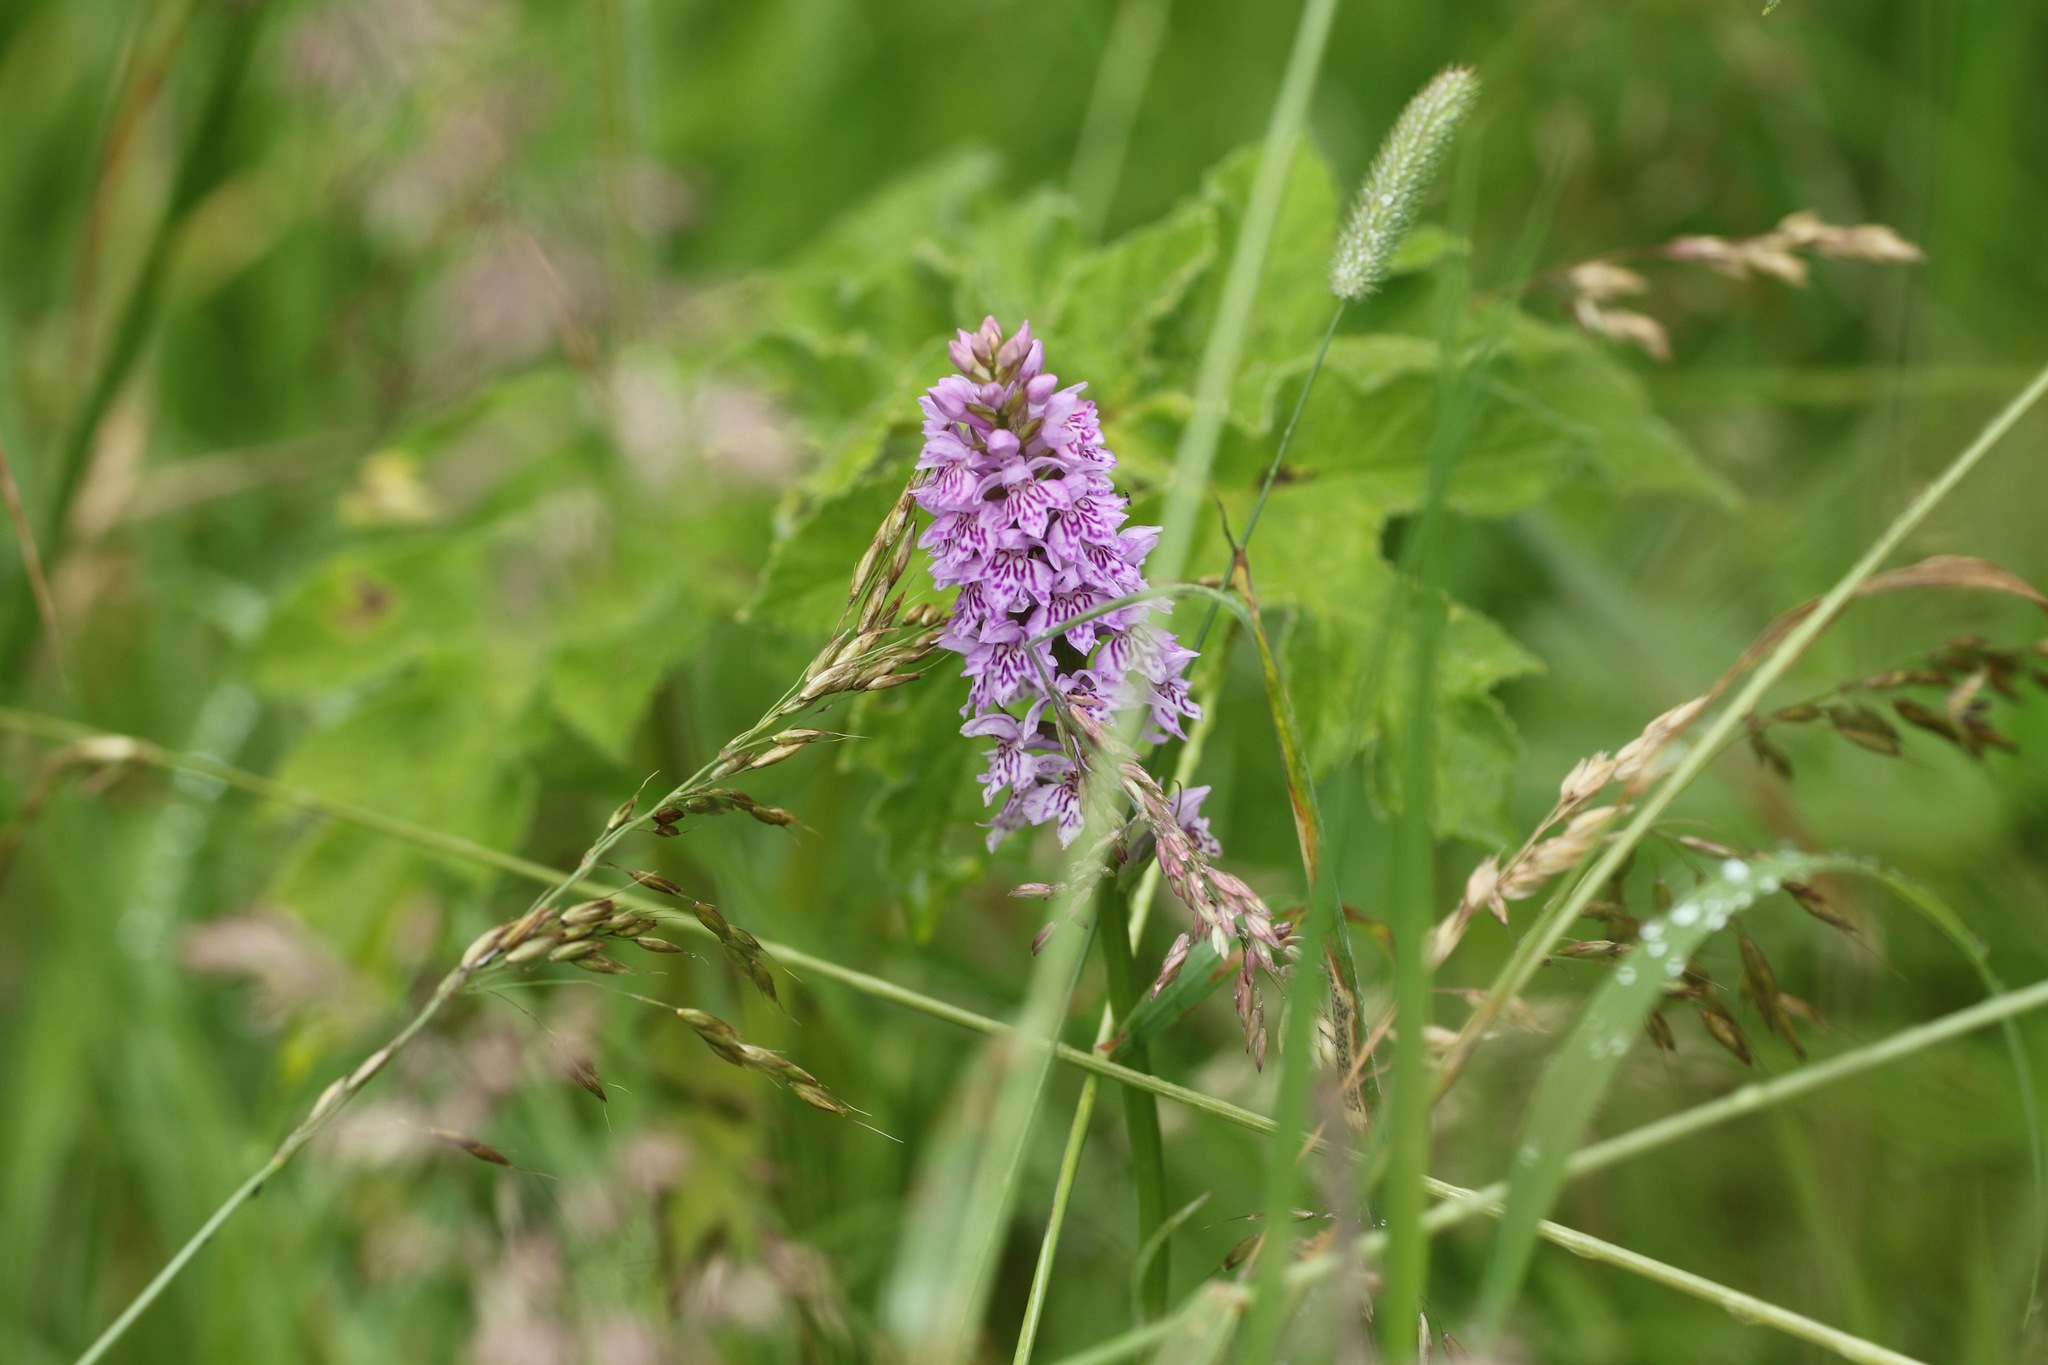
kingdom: Plantae
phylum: Tracheophyta
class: Liliopsida
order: Asparagales
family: Orchidaceae
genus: Dactylorhiza
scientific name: Dactylorhiza maculata
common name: Heath spotted-orchid
